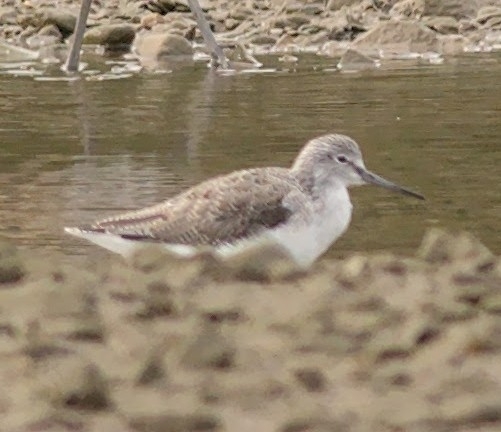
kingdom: Animalia
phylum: Chordata
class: Aves
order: Charadriiformes
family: Scolopacidae
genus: Tringa
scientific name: Tringa nebularia
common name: Common greenshank
